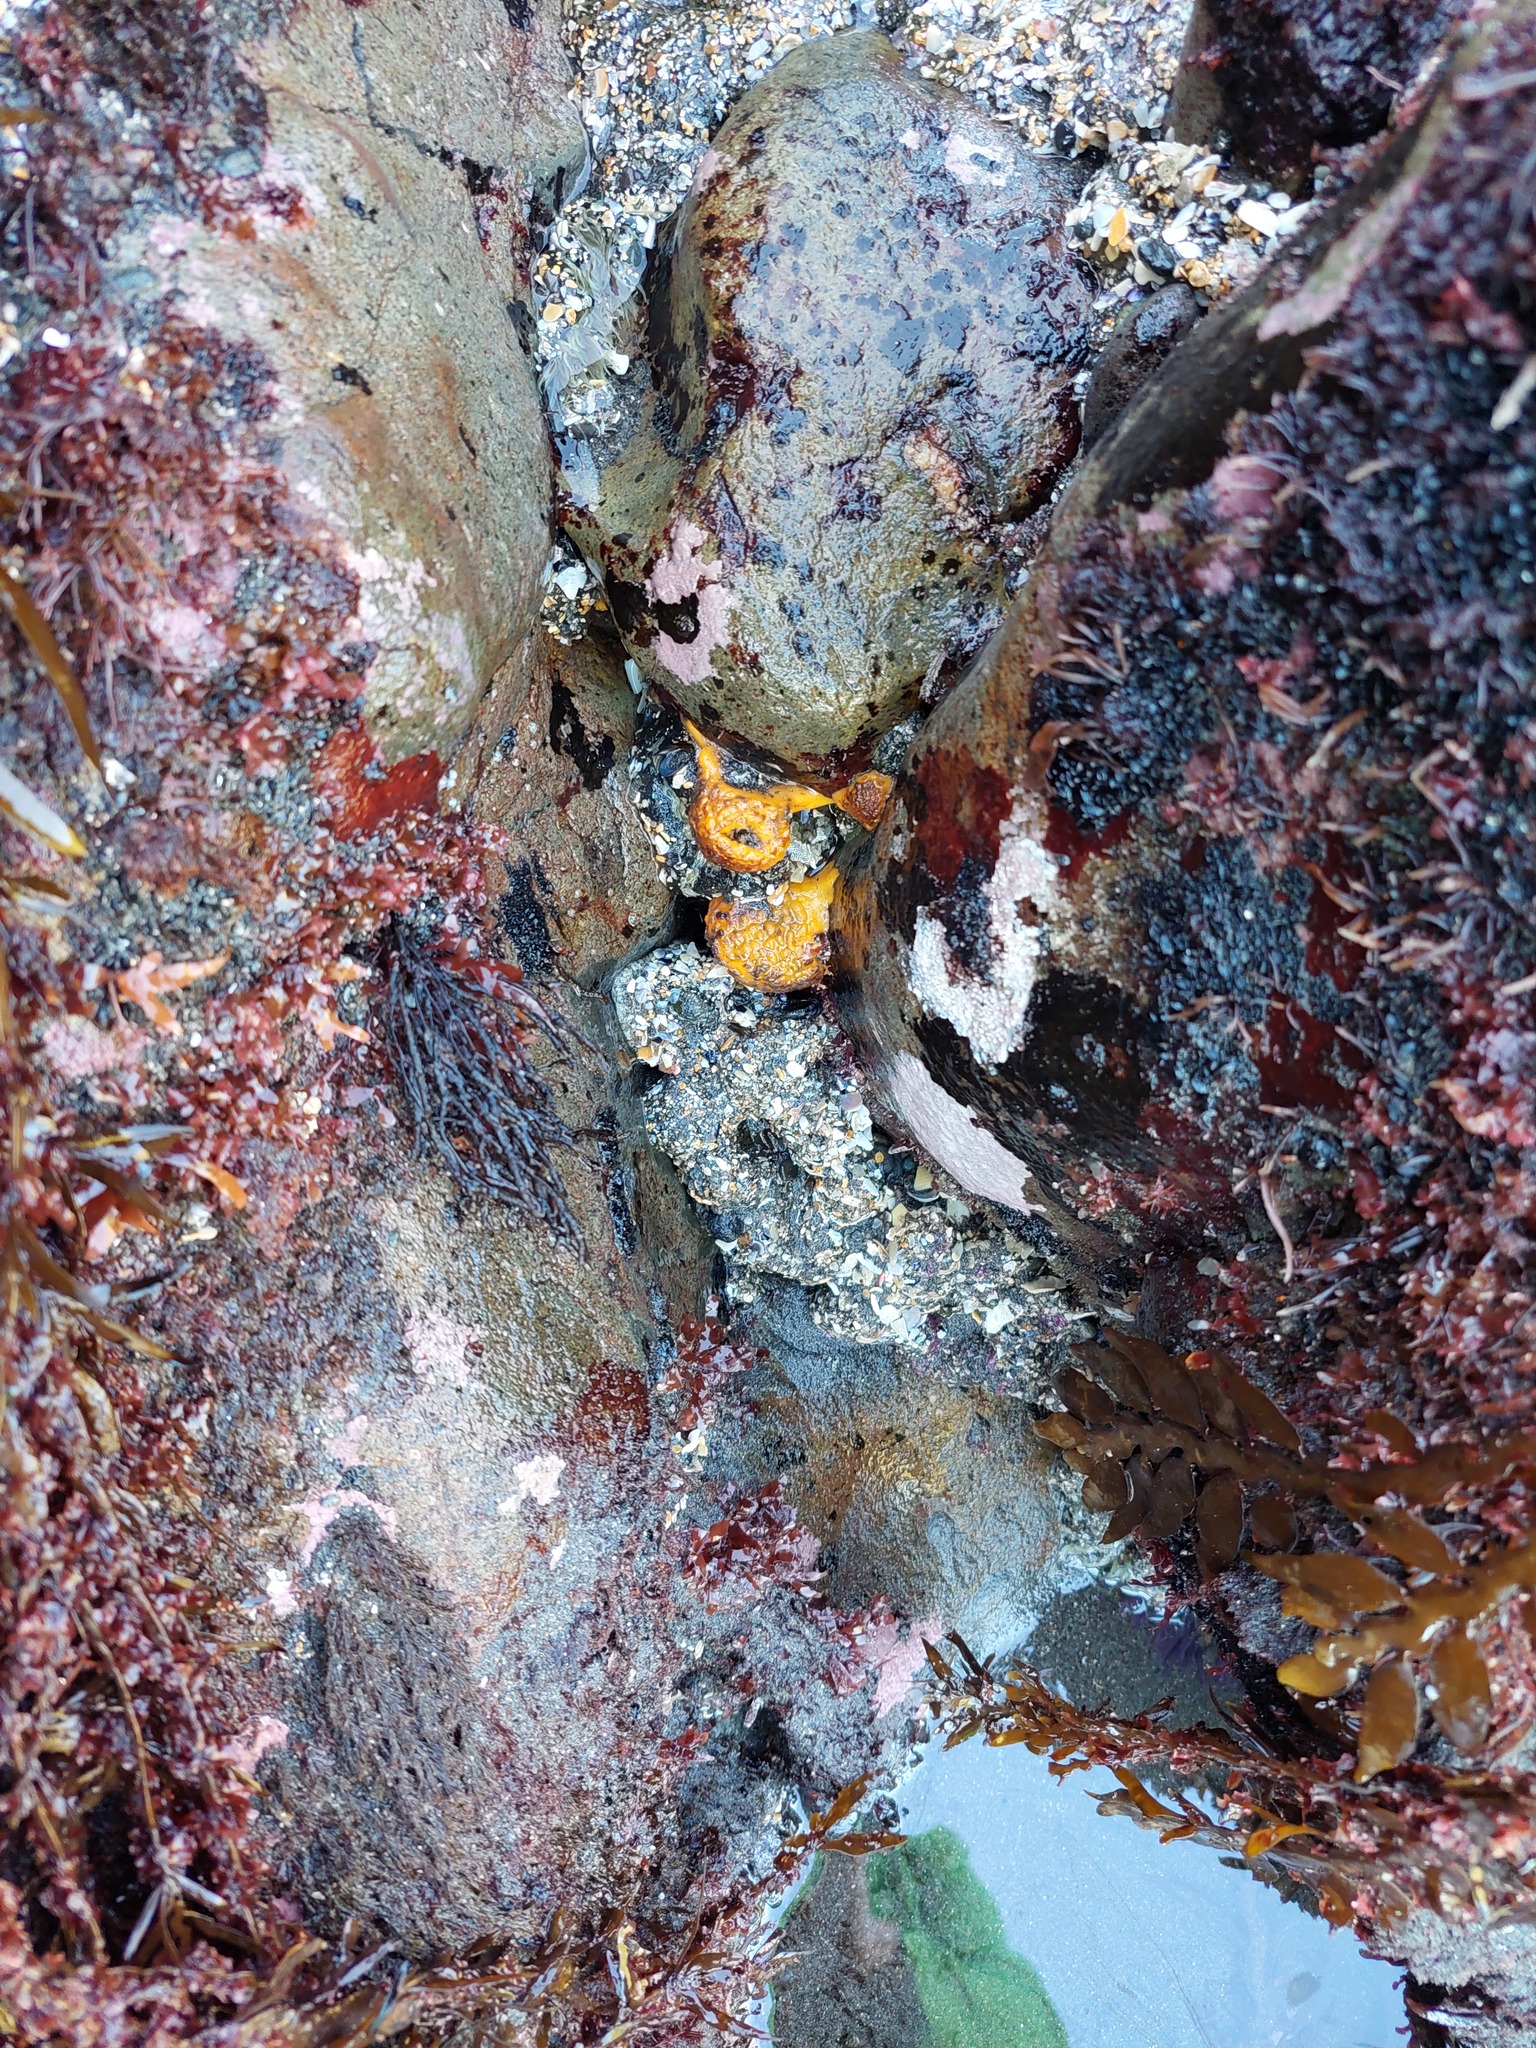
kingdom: Animalia
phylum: Porifera
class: Demospongiae
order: Tethyida
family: Tethyidae
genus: Tethya
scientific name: Tethya burtoni
